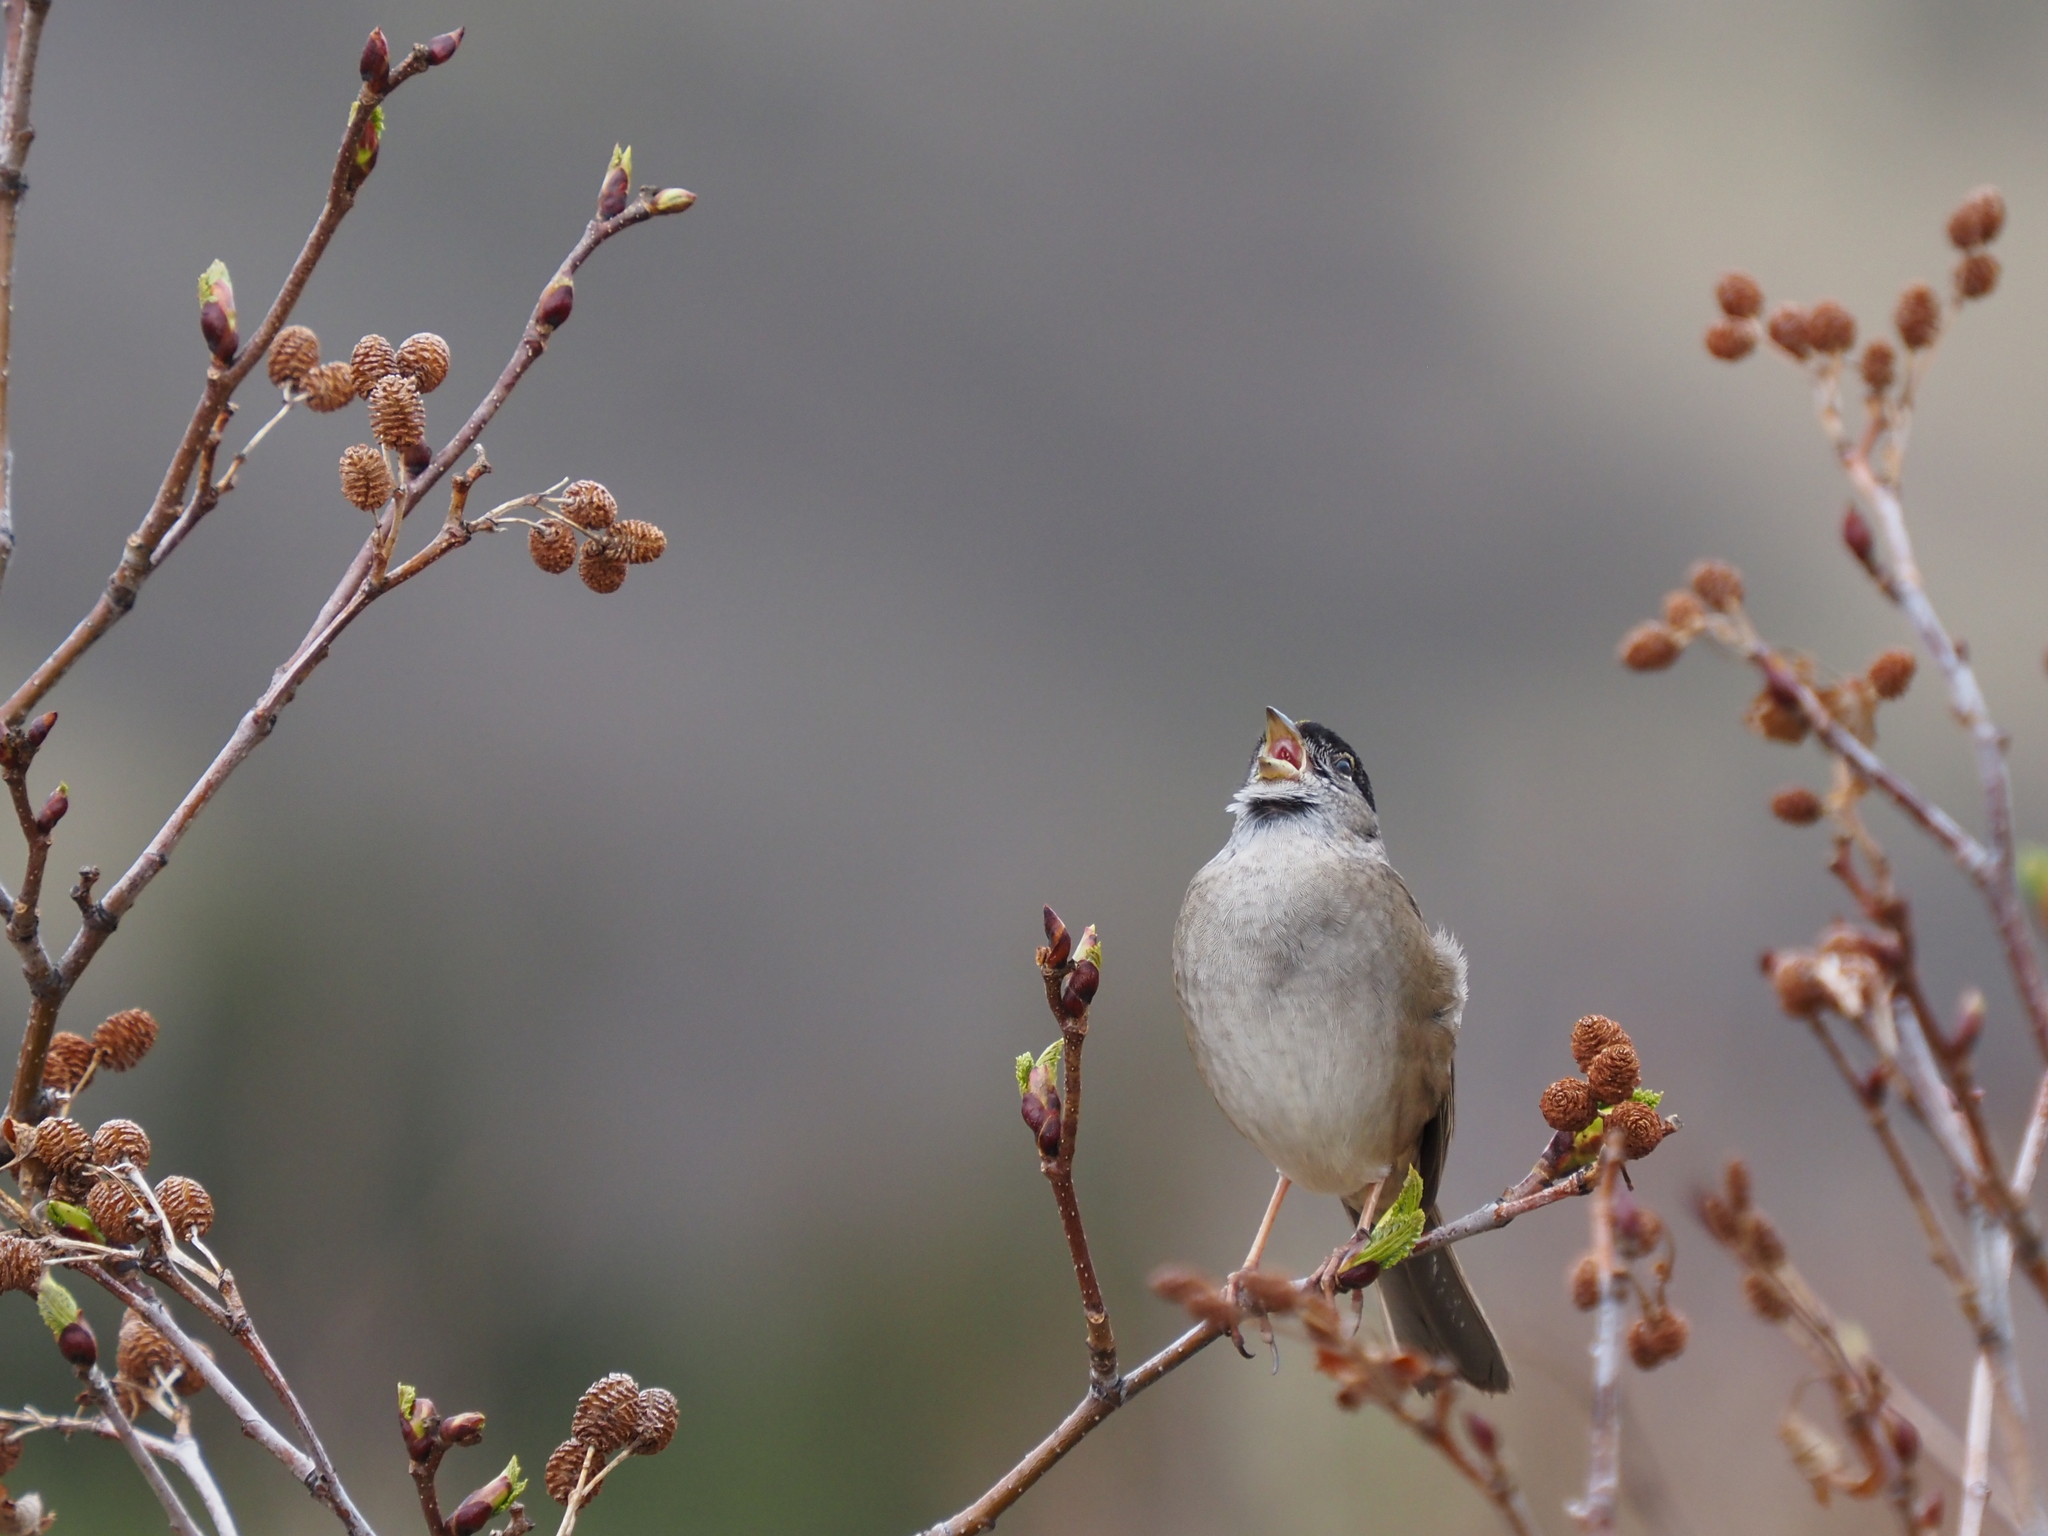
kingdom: Animalia
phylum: Chordata
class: Aves
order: Passeriformes
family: Passerellidae
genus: Zonotrichia
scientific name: Zonotrichia atricapilla
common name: Golden-crowned sparrow
